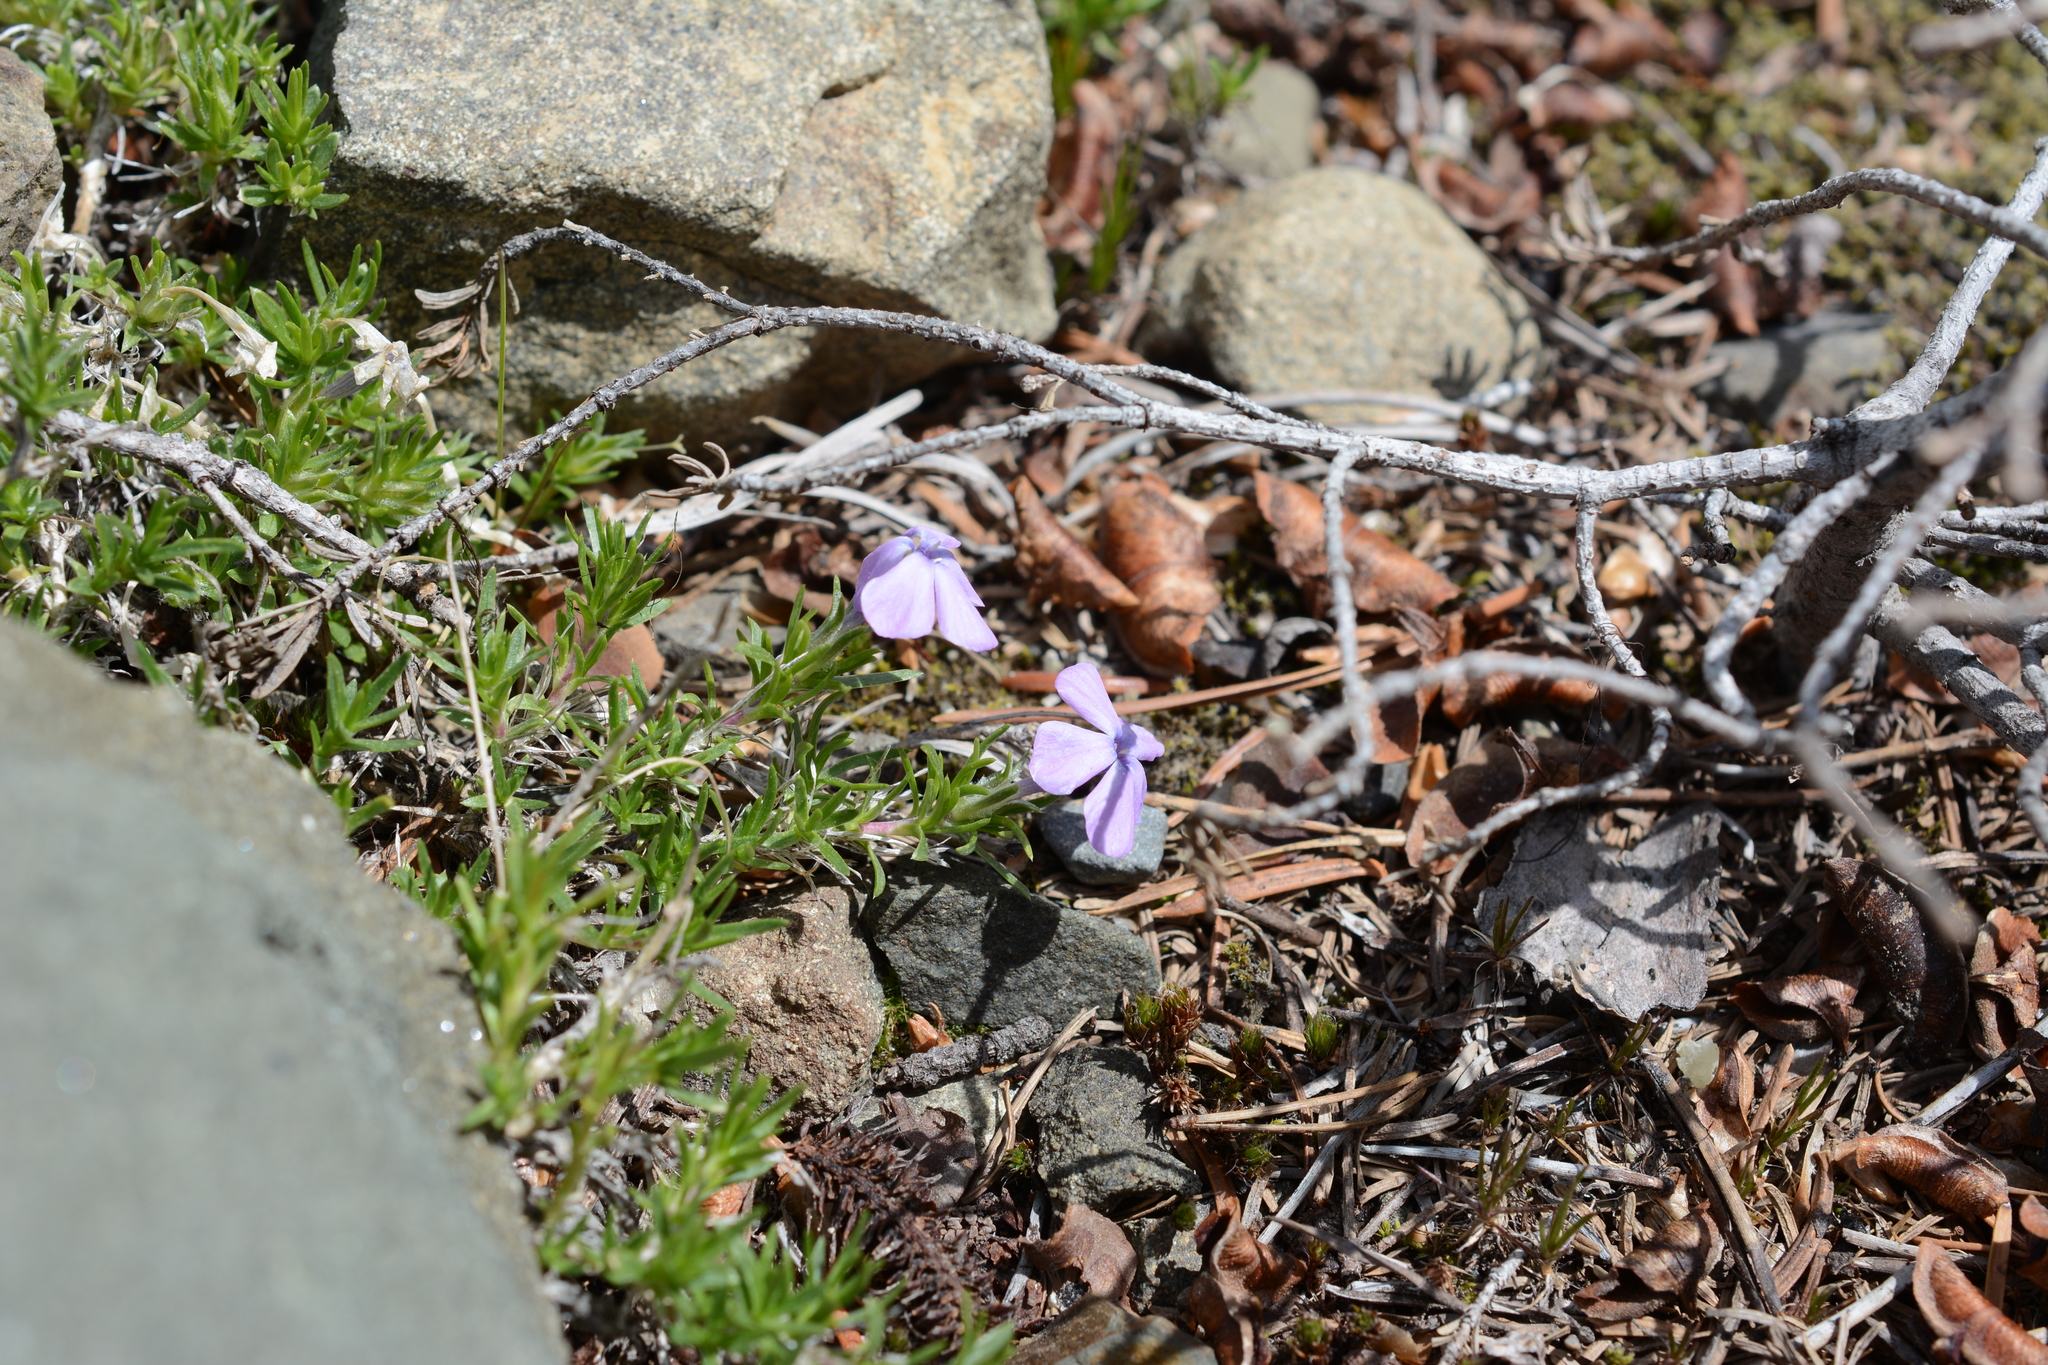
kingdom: Plantae
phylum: Tracheophyta
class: Magnoliopsida
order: Ericales
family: Polemoniaceae
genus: Phlox
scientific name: Phlox diffusa
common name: Mat phlox
